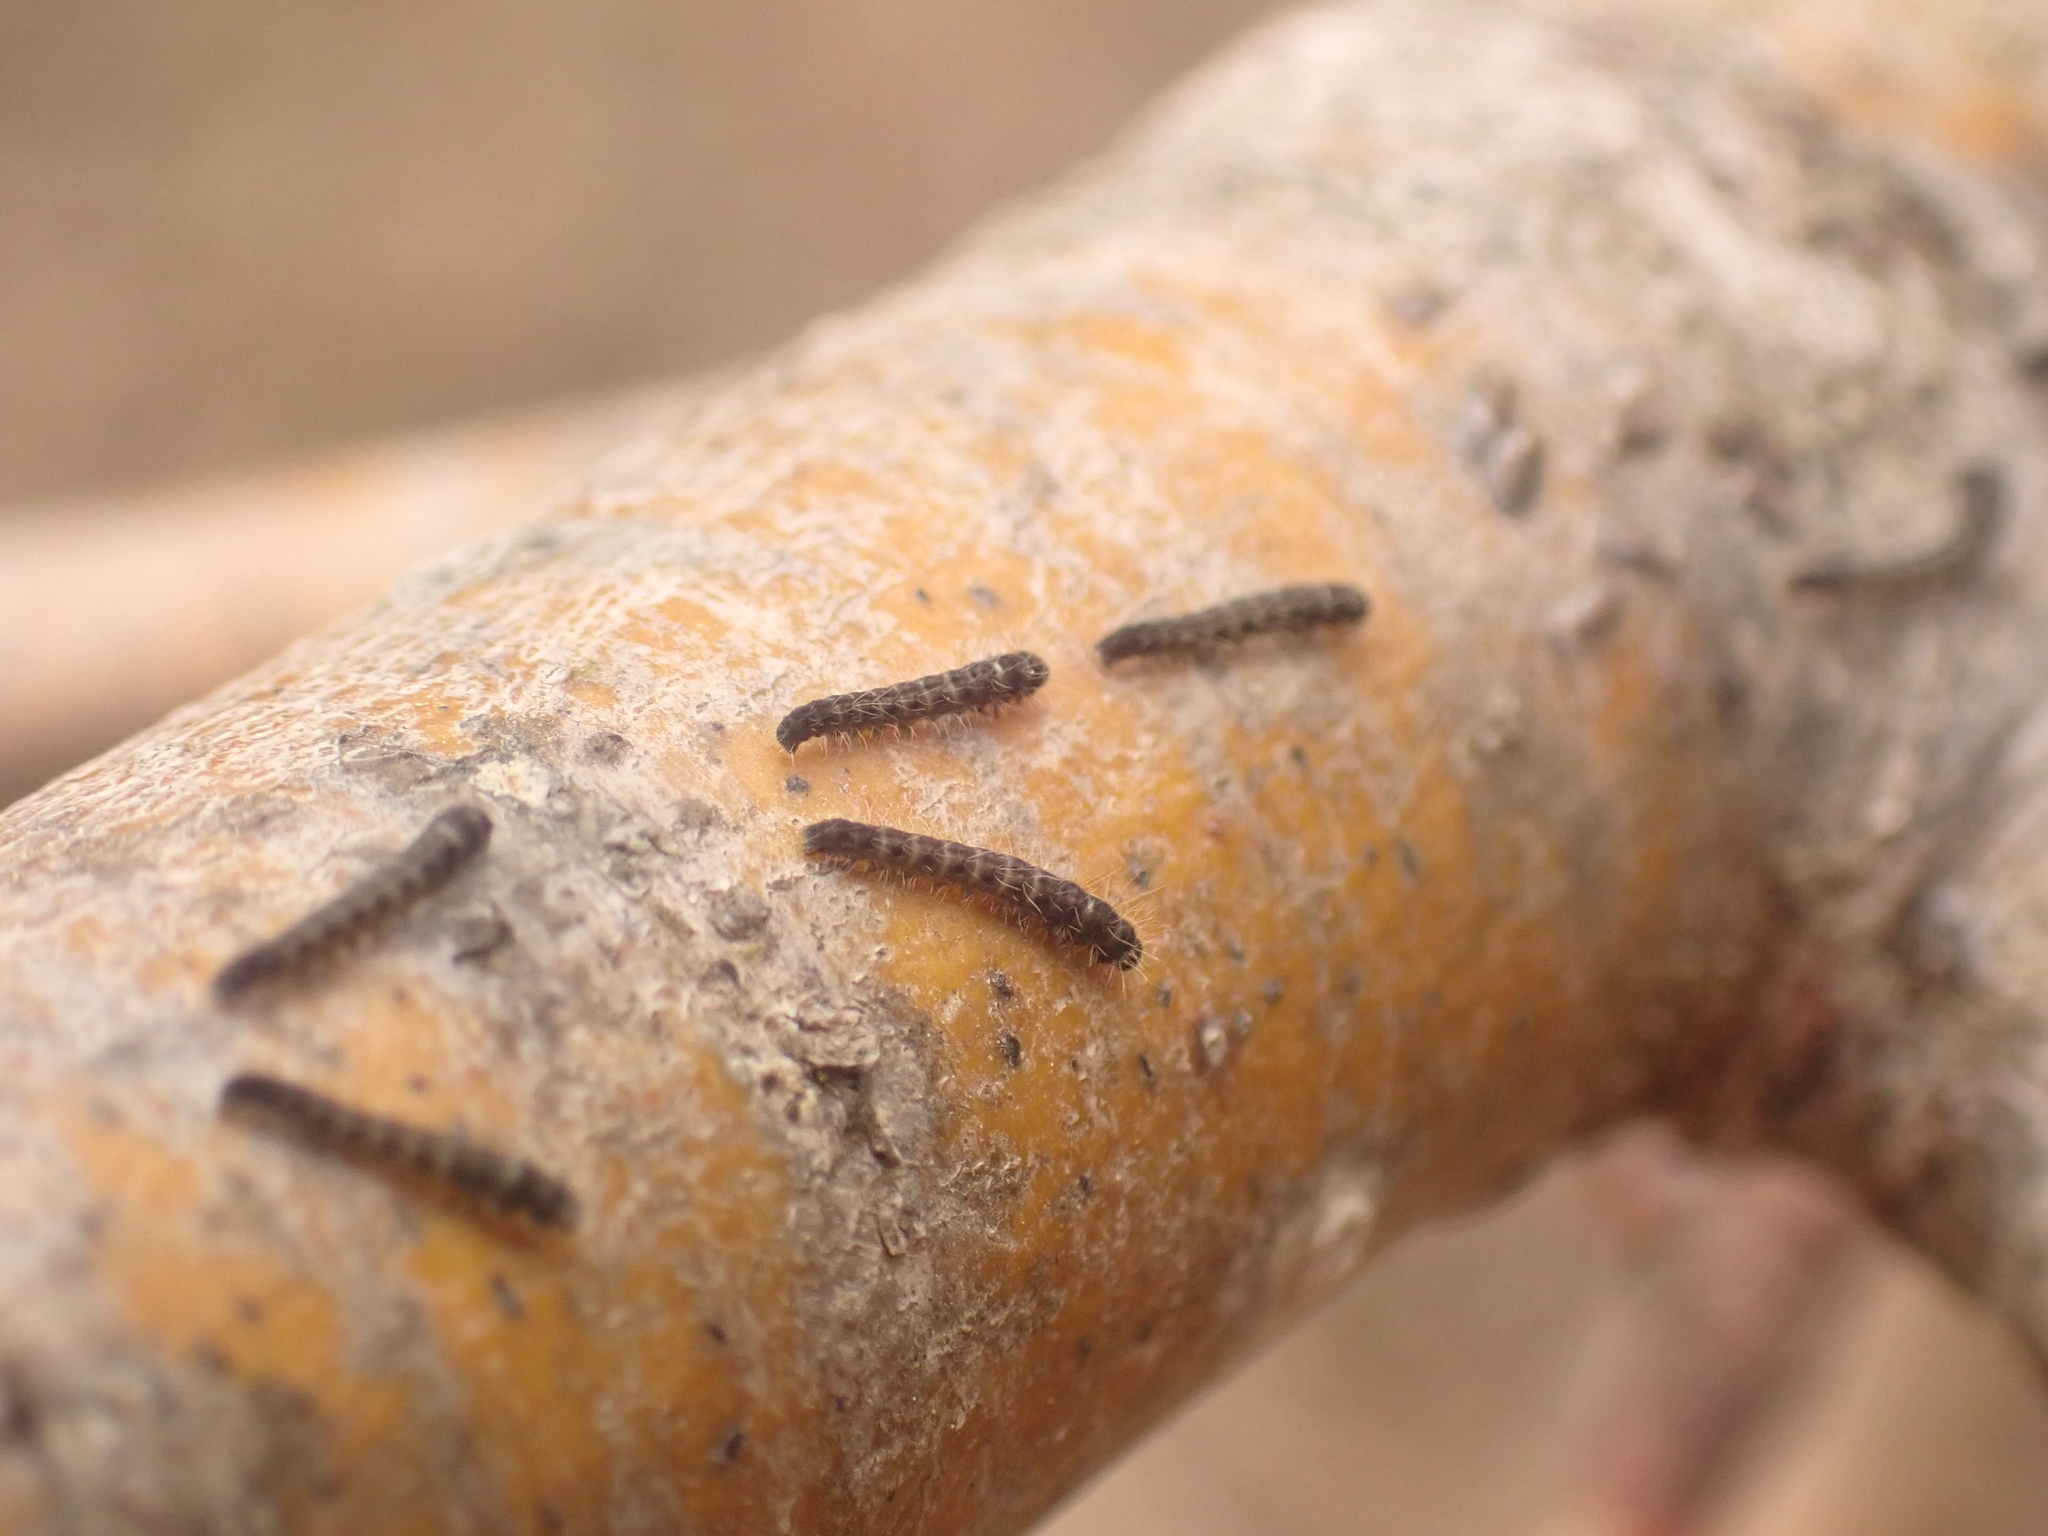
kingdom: Animalia
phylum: Arthropoda
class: Insecta
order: Lepidoptera
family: Lasiocampidae
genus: Malacosoma
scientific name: Malacosoma americana
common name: Eastern tent caterpillar moth
